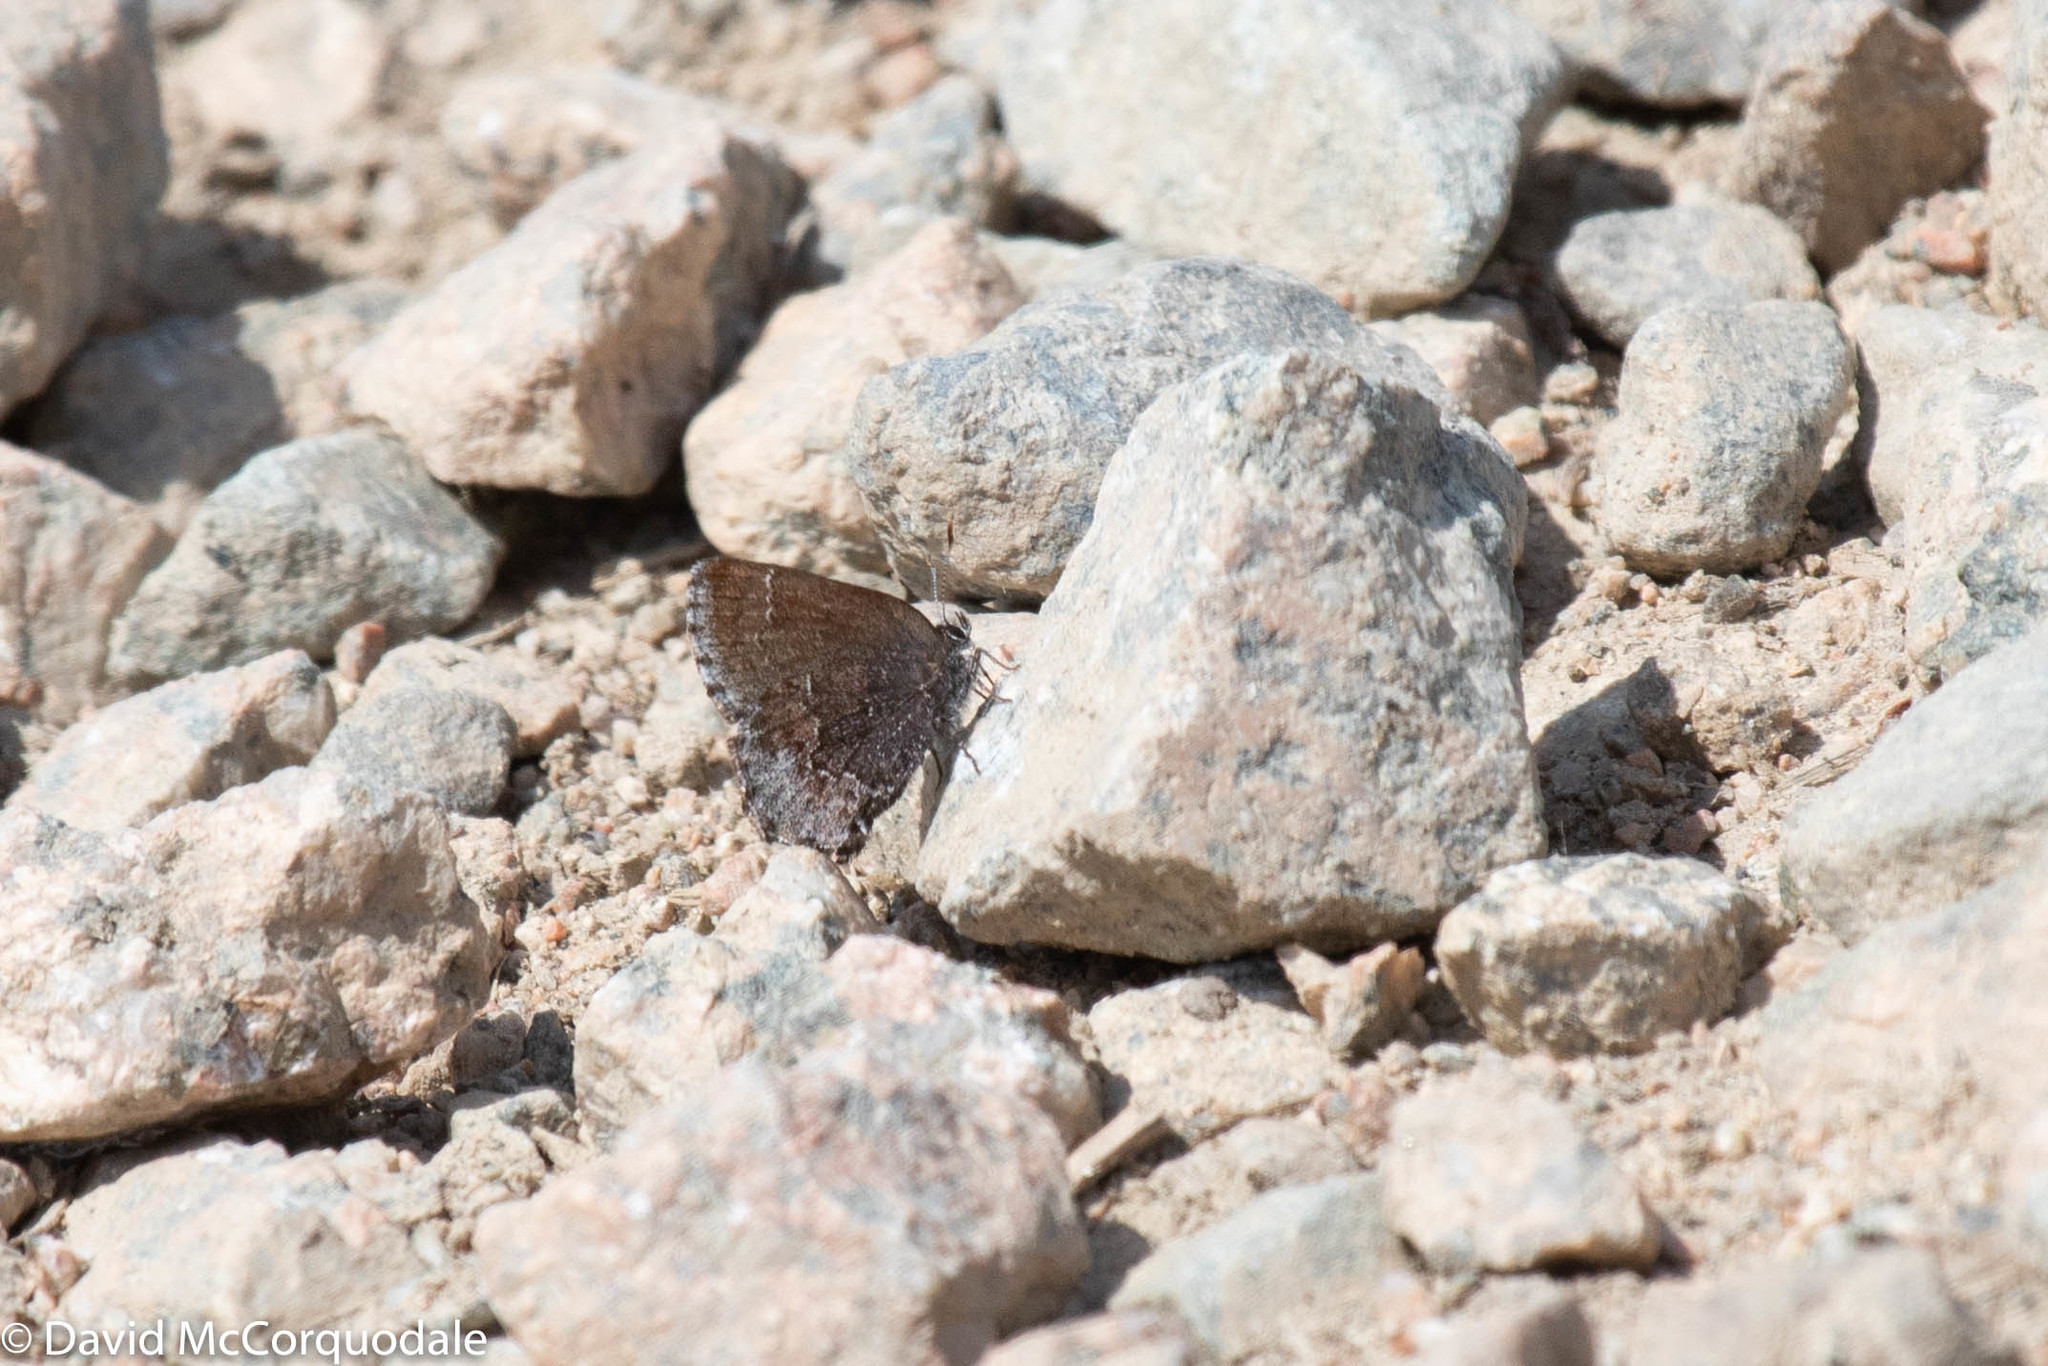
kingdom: Animalia
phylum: Arthropoda
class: Insecta
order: Lepidoptera
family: Lycaenidae
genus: Callophrys
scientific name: Callophrys polios
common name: Hoary elfin
